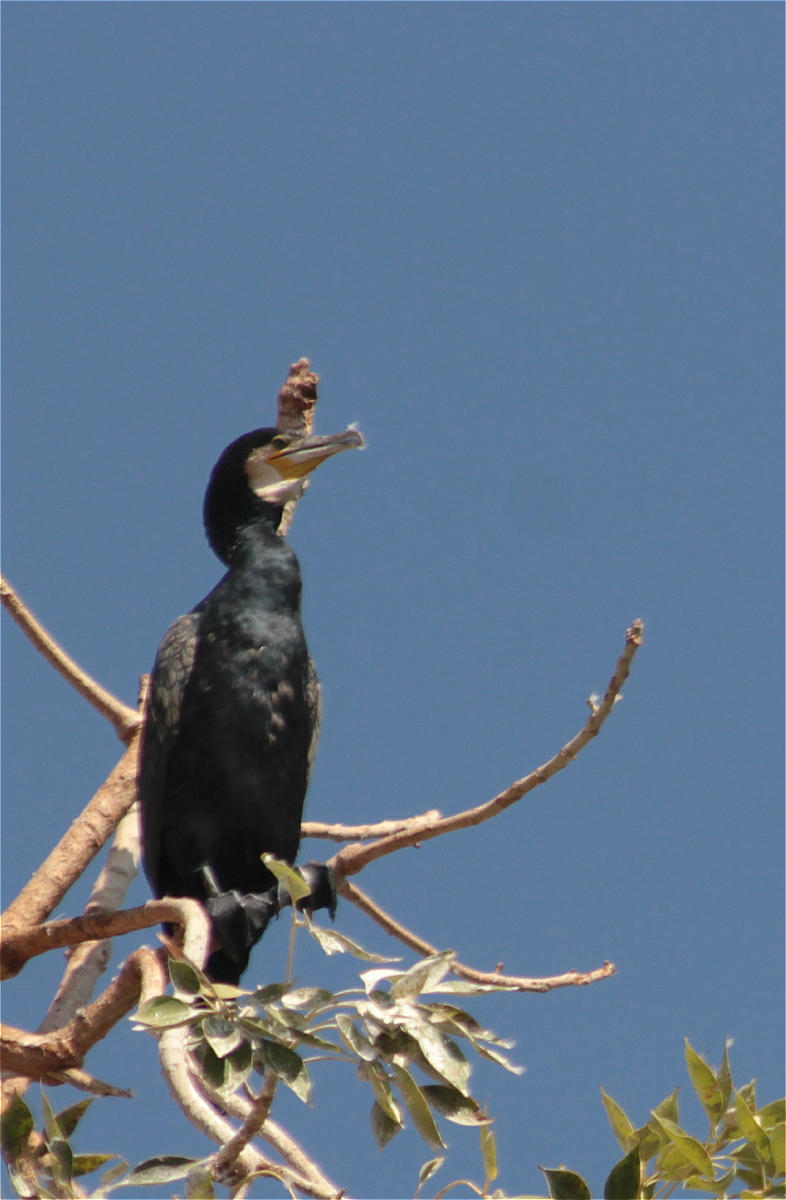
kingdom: Animalia
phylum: Chordata
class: Aves
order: Suliformes
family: Phalacrocoracidae
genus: Phalacrocorax
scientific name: Phalacrocorax carbo
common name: Great cormorant
